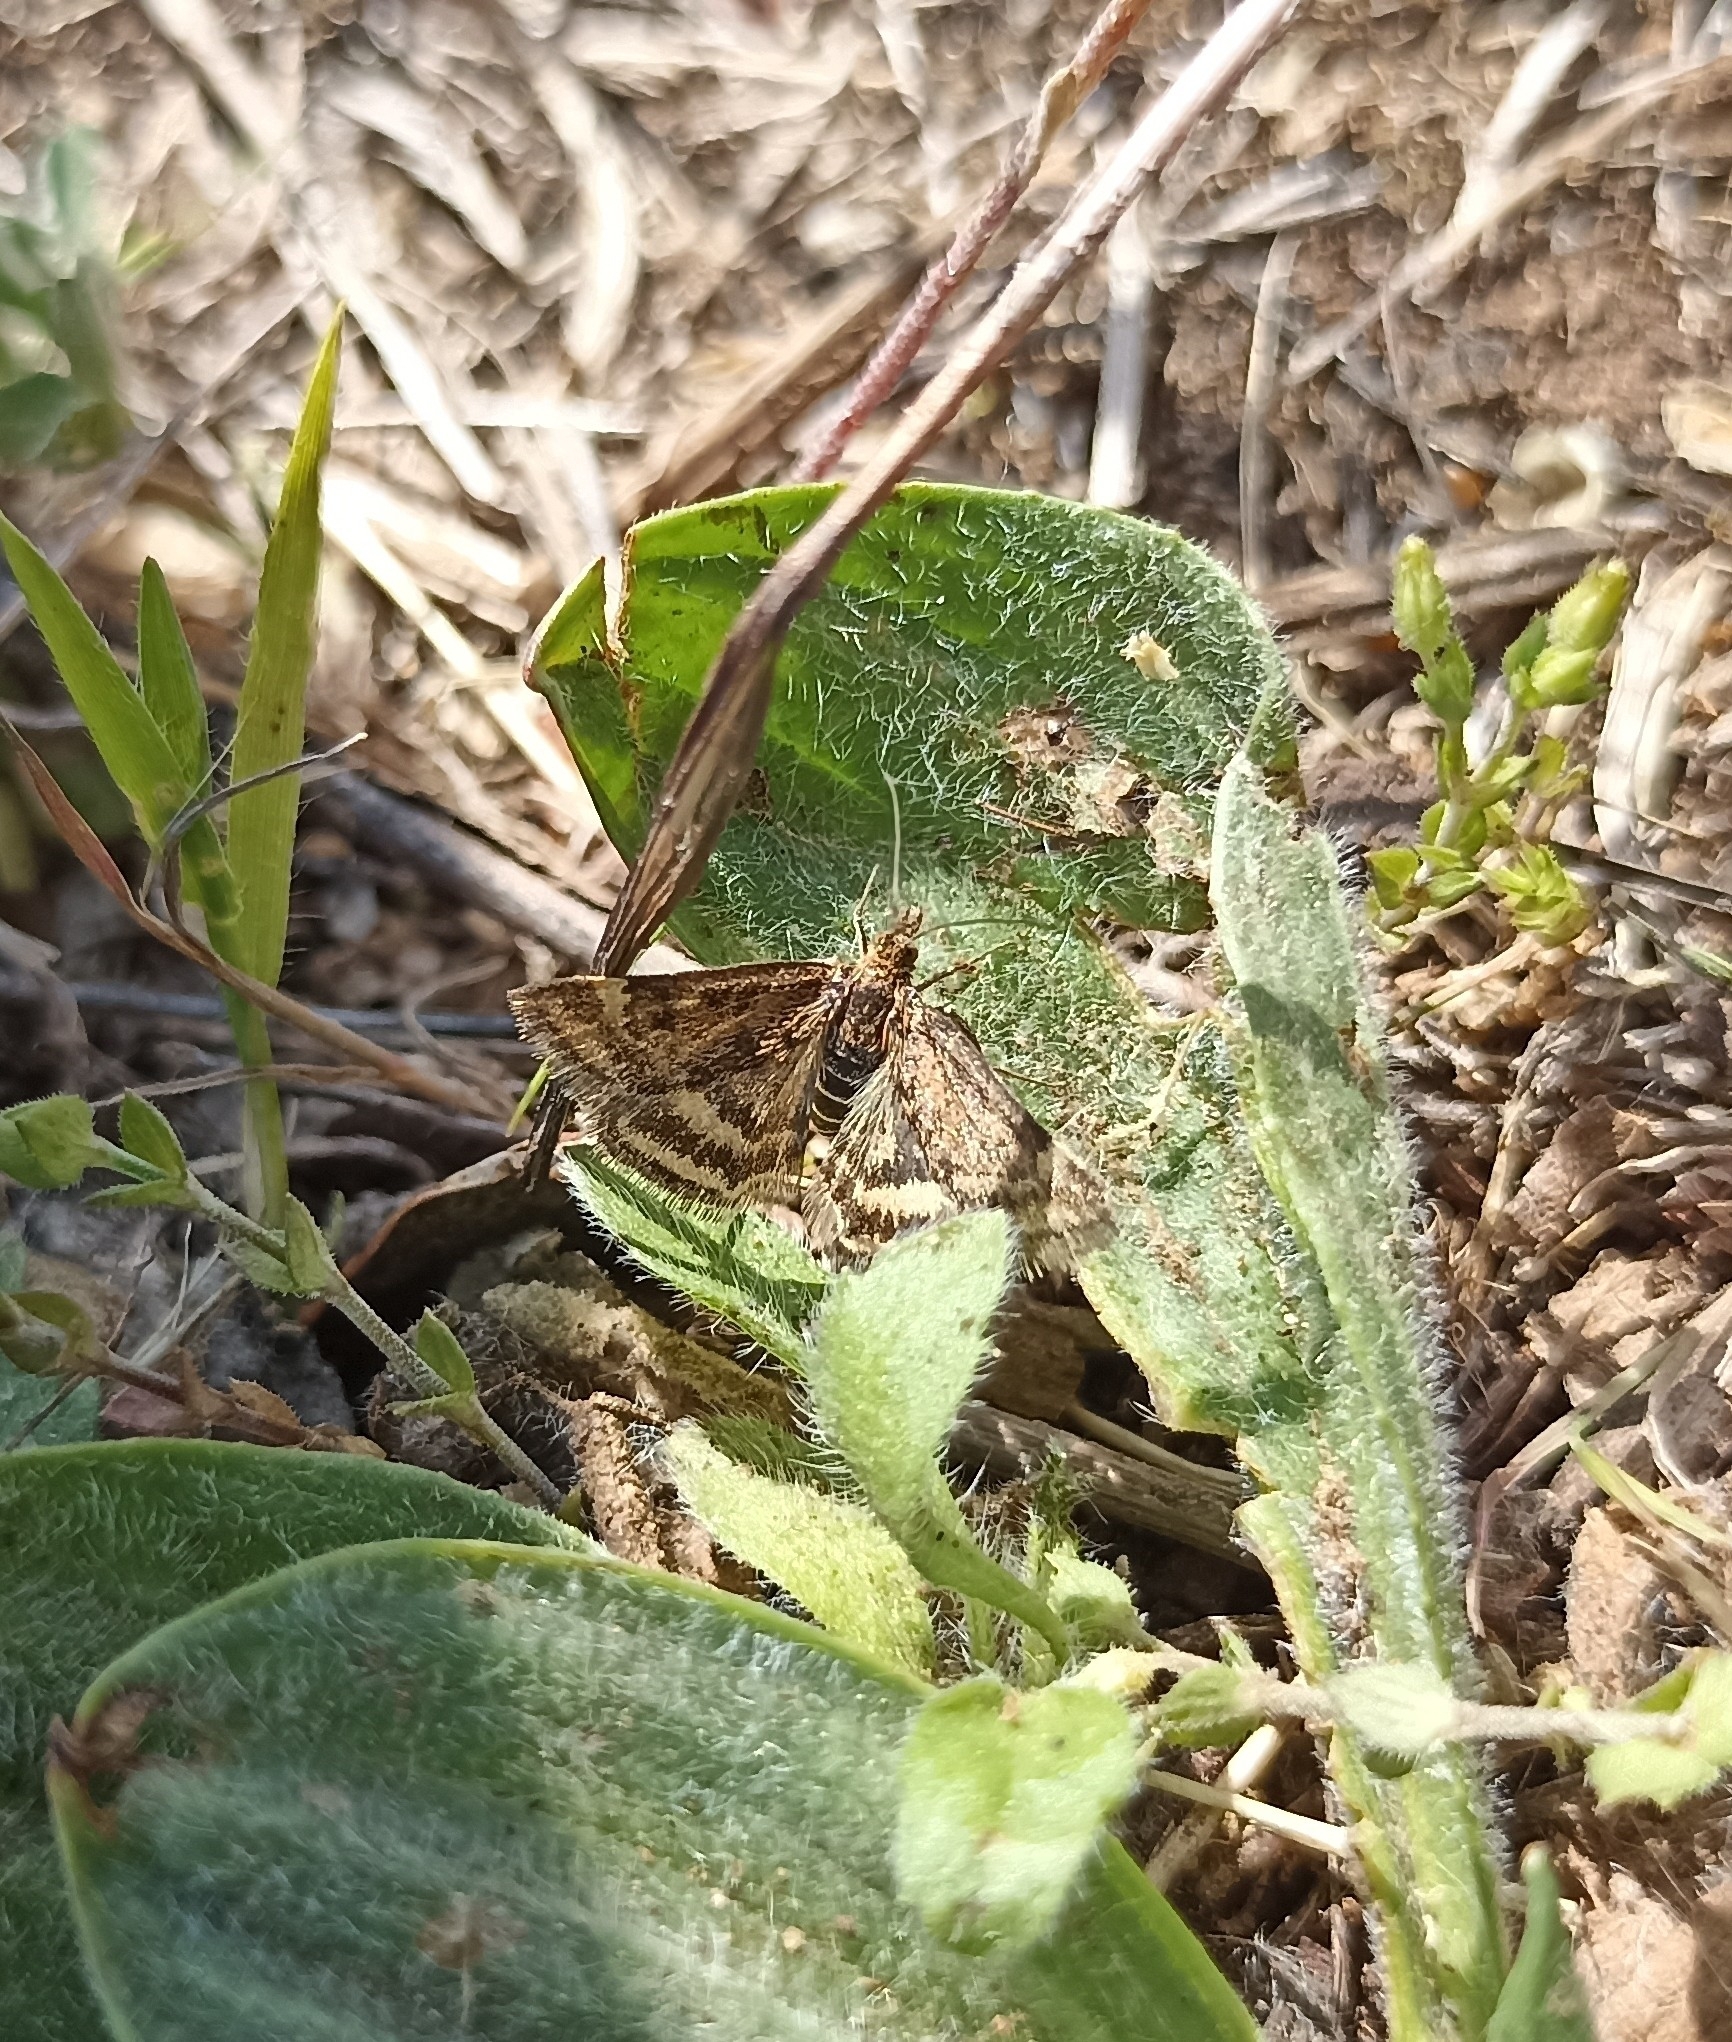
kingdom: Animalia
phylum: Arthropoda
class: Insecta
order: Lepidoptera
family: Crambidae
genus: Pyrausta
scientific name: Pyrausta despicata
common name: Straw-barred pearl
